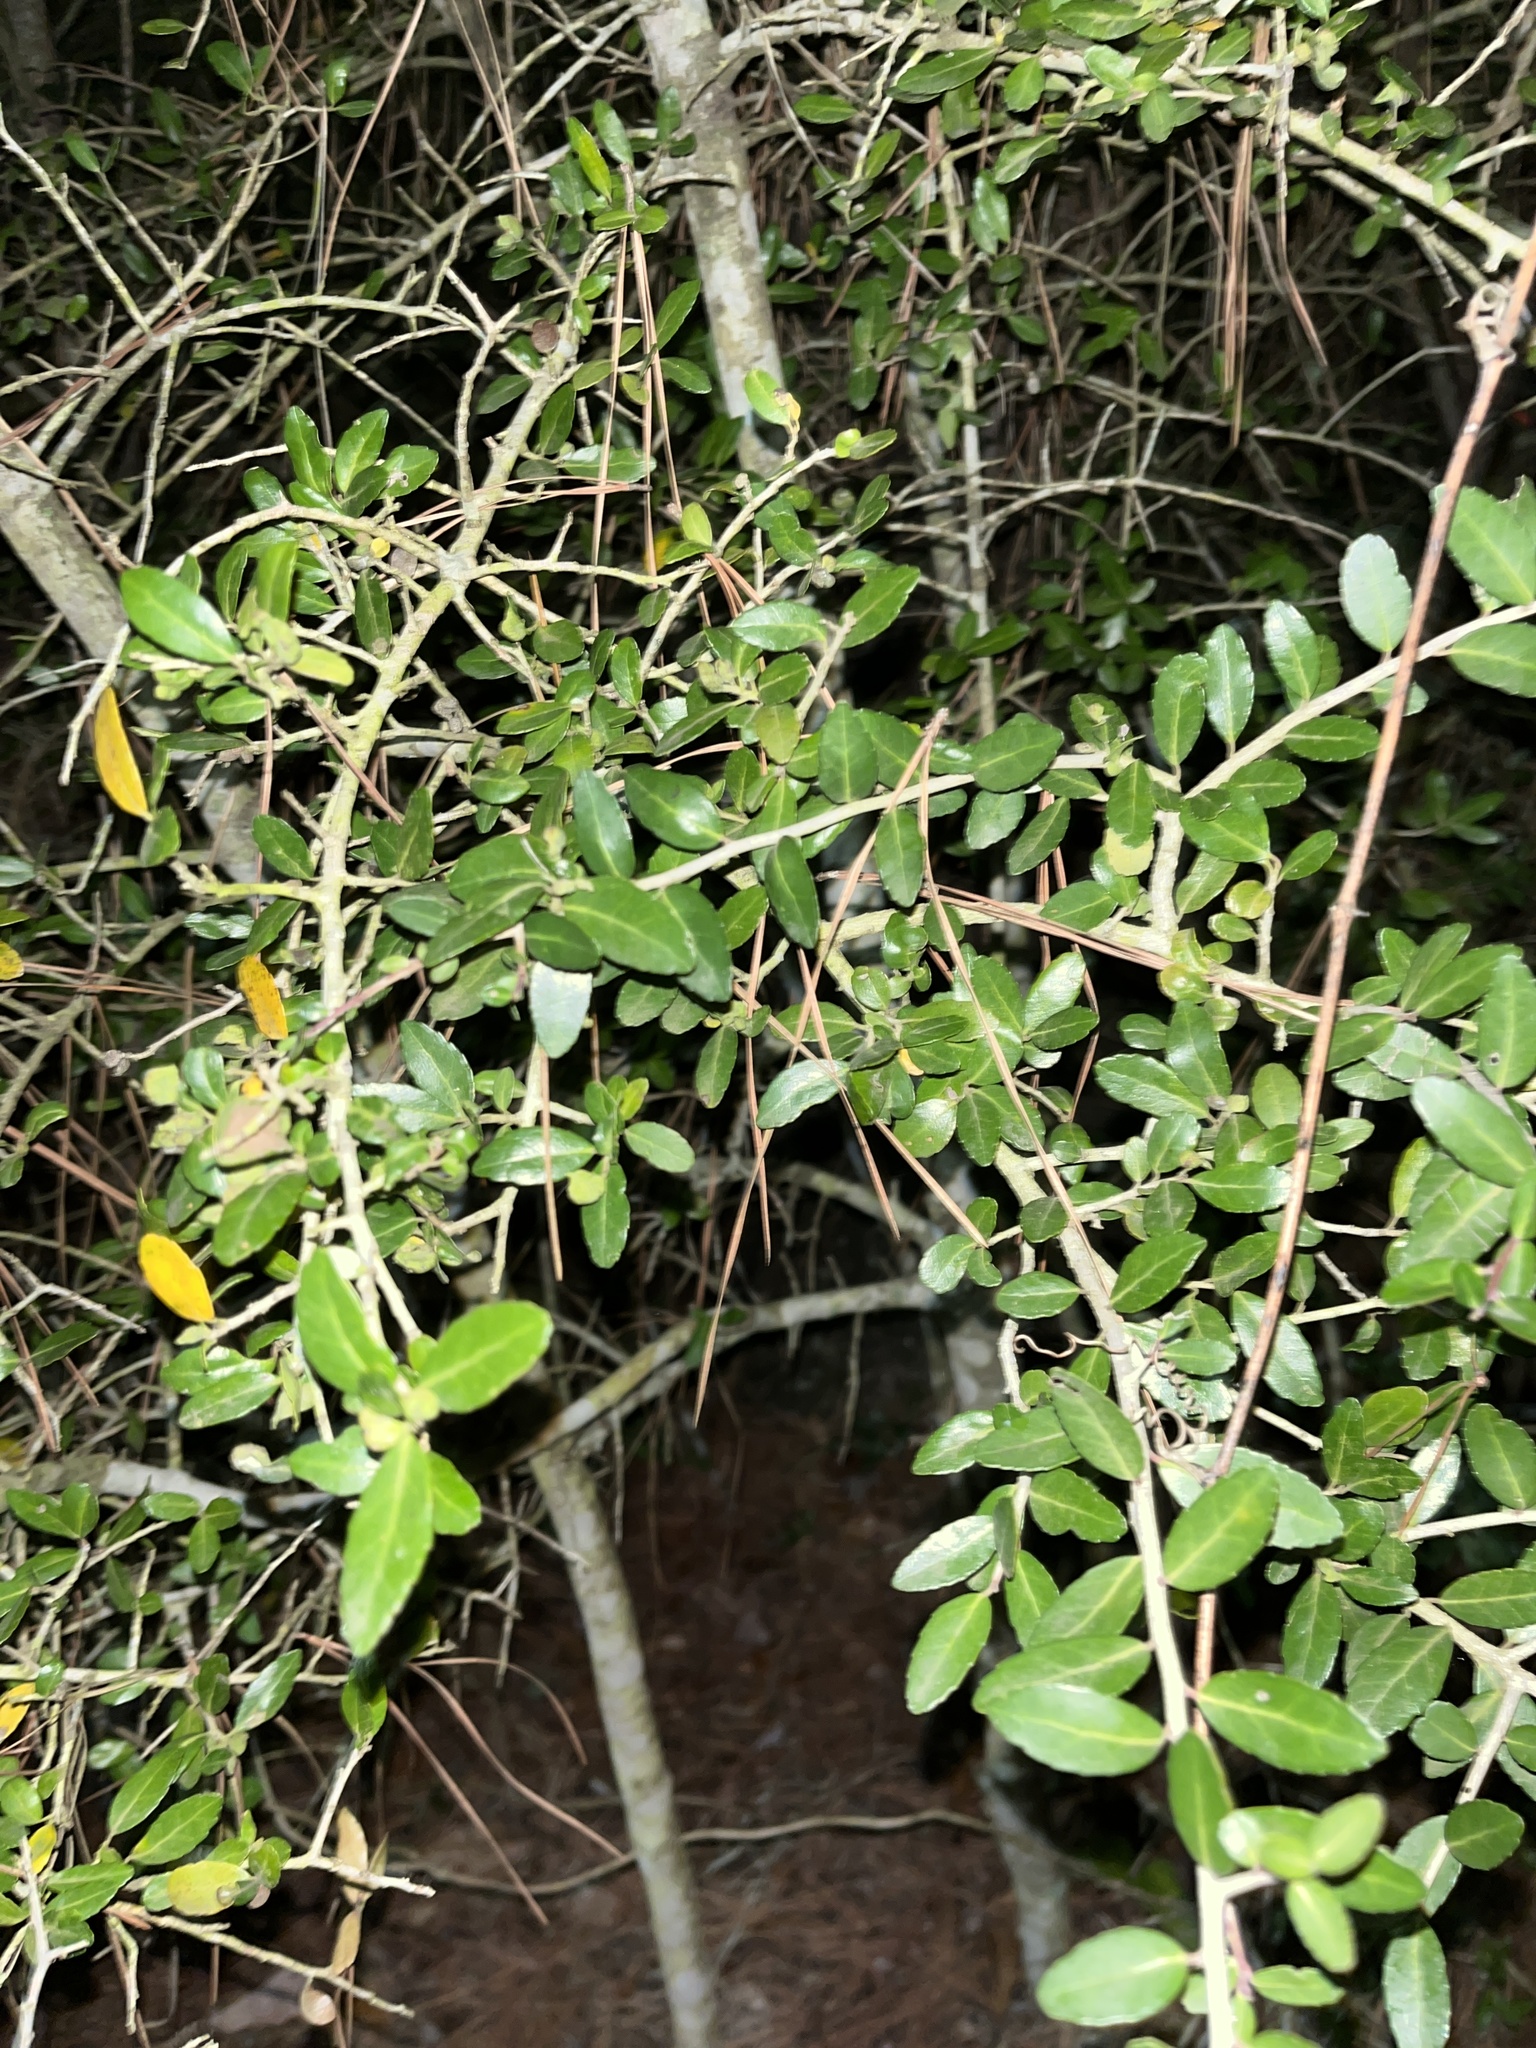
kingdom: Plantae
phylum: Tracheophyta
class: Magnoliopsida
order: Aquifoliales
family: Aquifoliaceae
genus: Ilex
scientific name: Ilex vomitoria
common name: Yaupon holly
